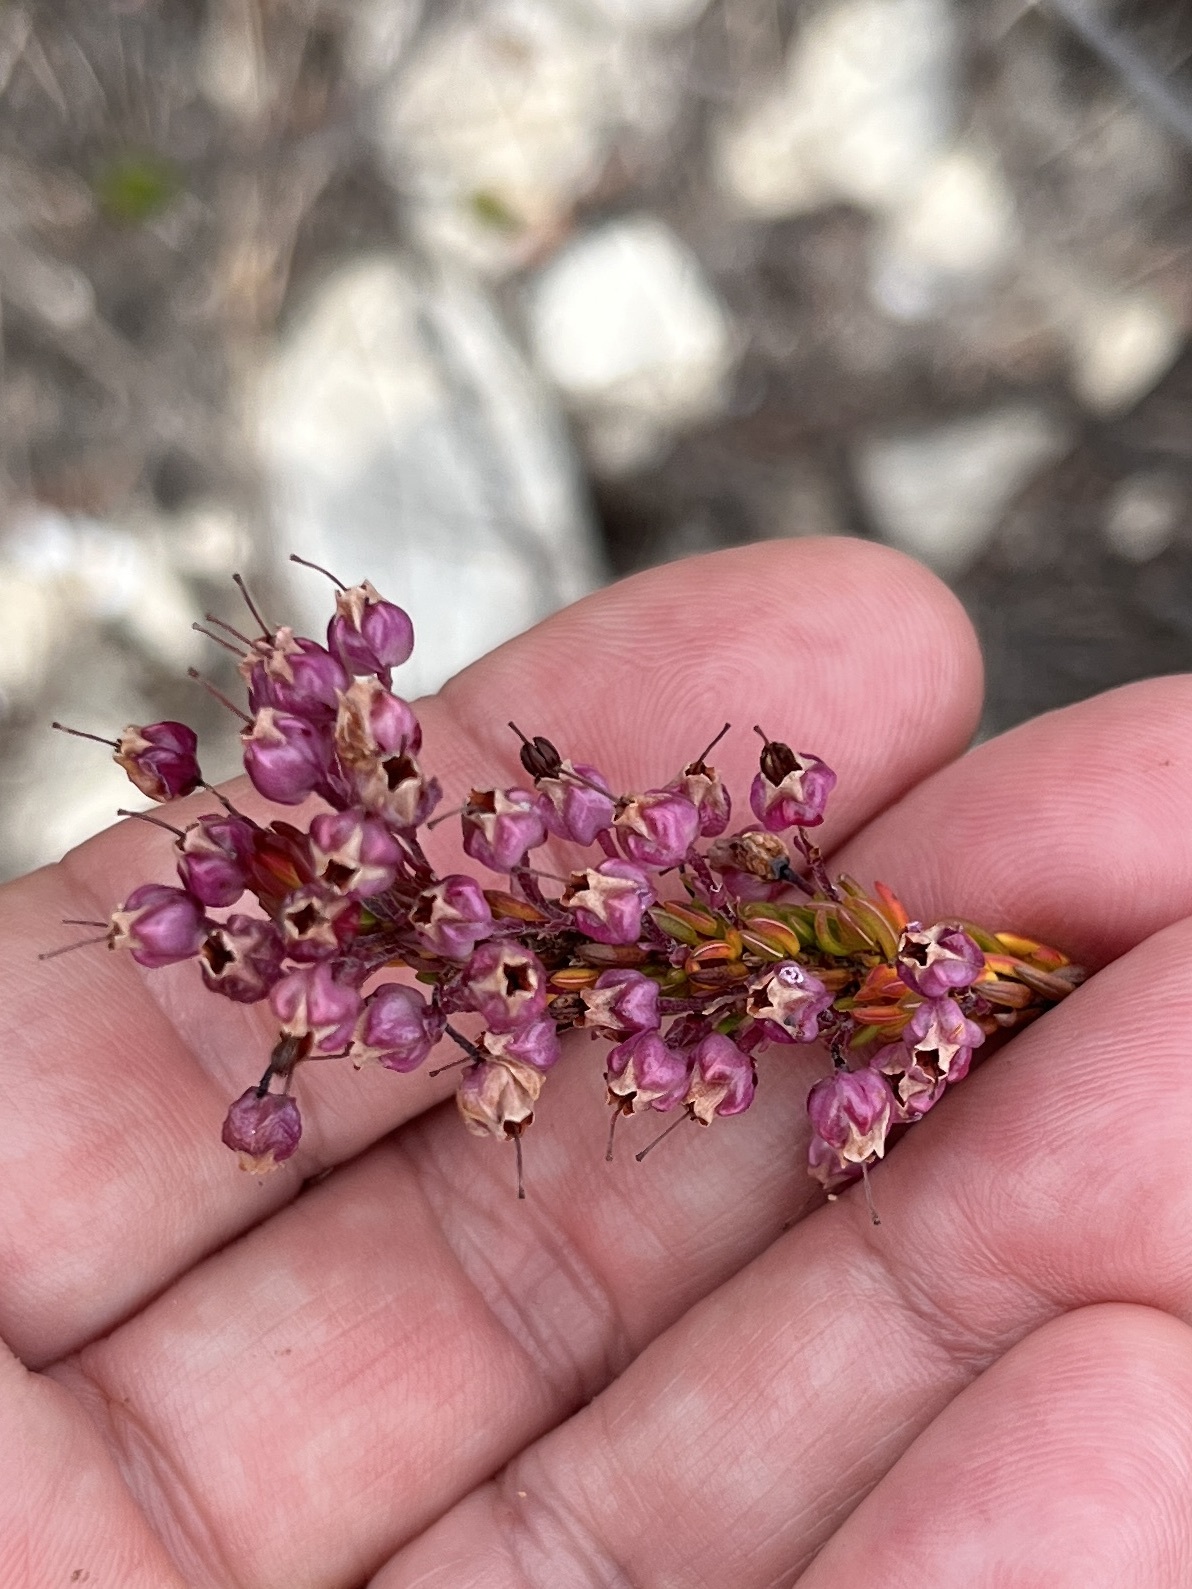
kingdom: Plantae
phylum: Tracheophyta
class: Magnoliopsida
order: Ericales
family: Ericaceae
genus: Erica
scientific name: Erica gracilipes
